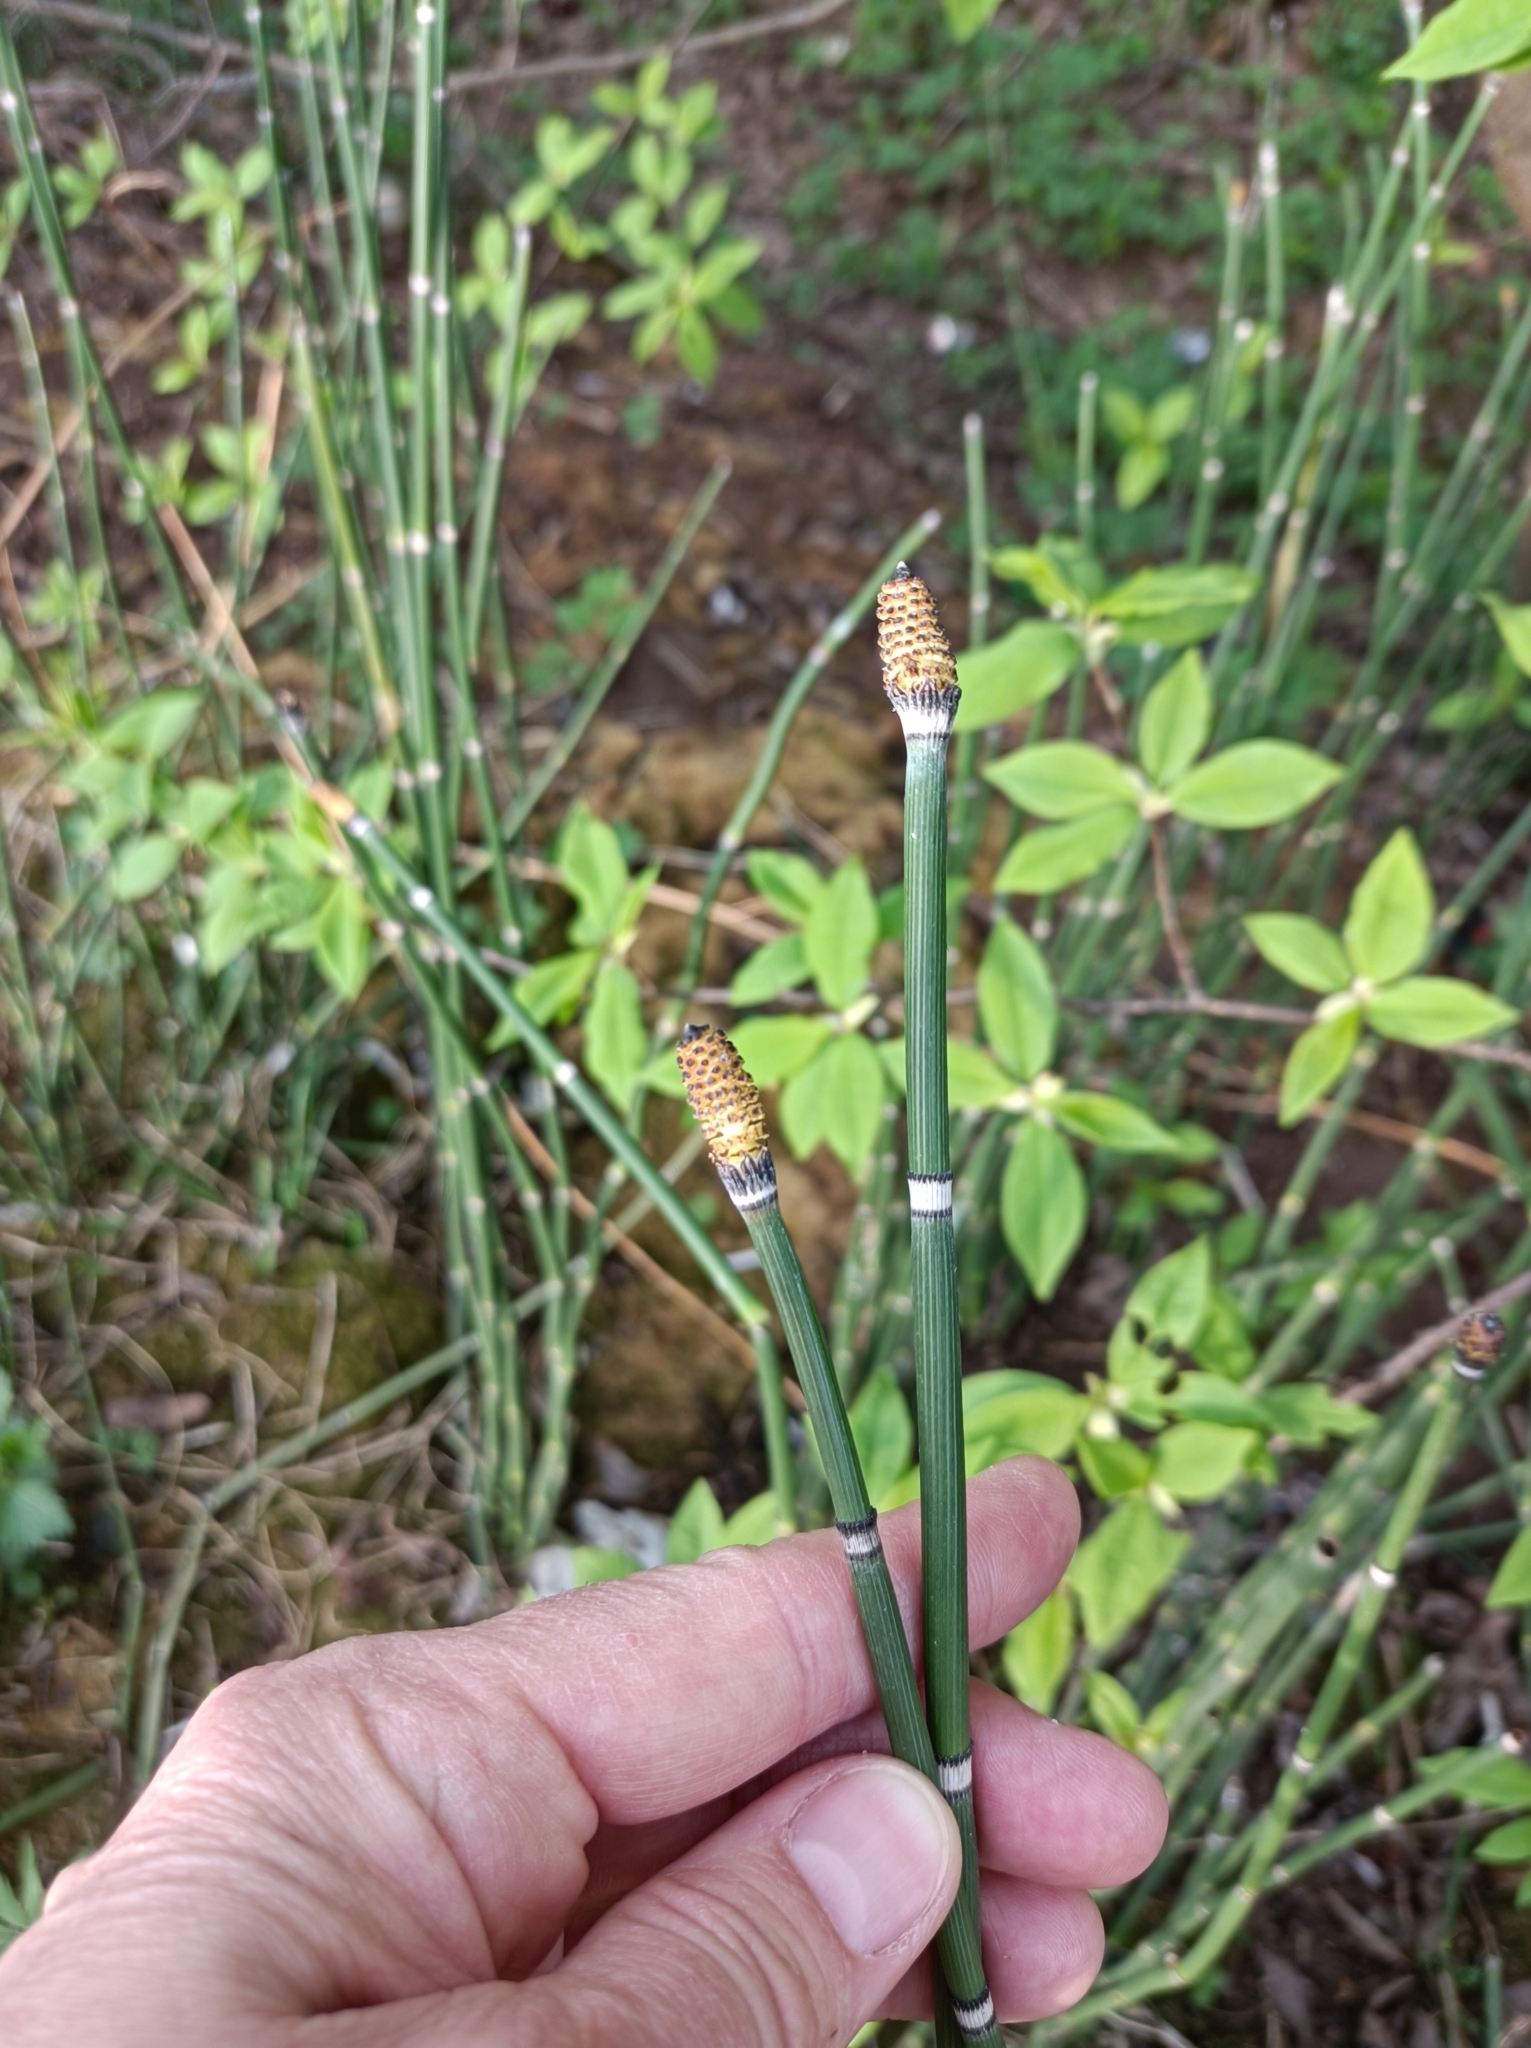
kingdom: Plantae
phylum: Tracheophyta
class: Polypodiopsida
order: Equisetales
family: Equisetaceae
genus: Equisetum
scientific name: Equisetum hyemale
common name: Rough horsetail
